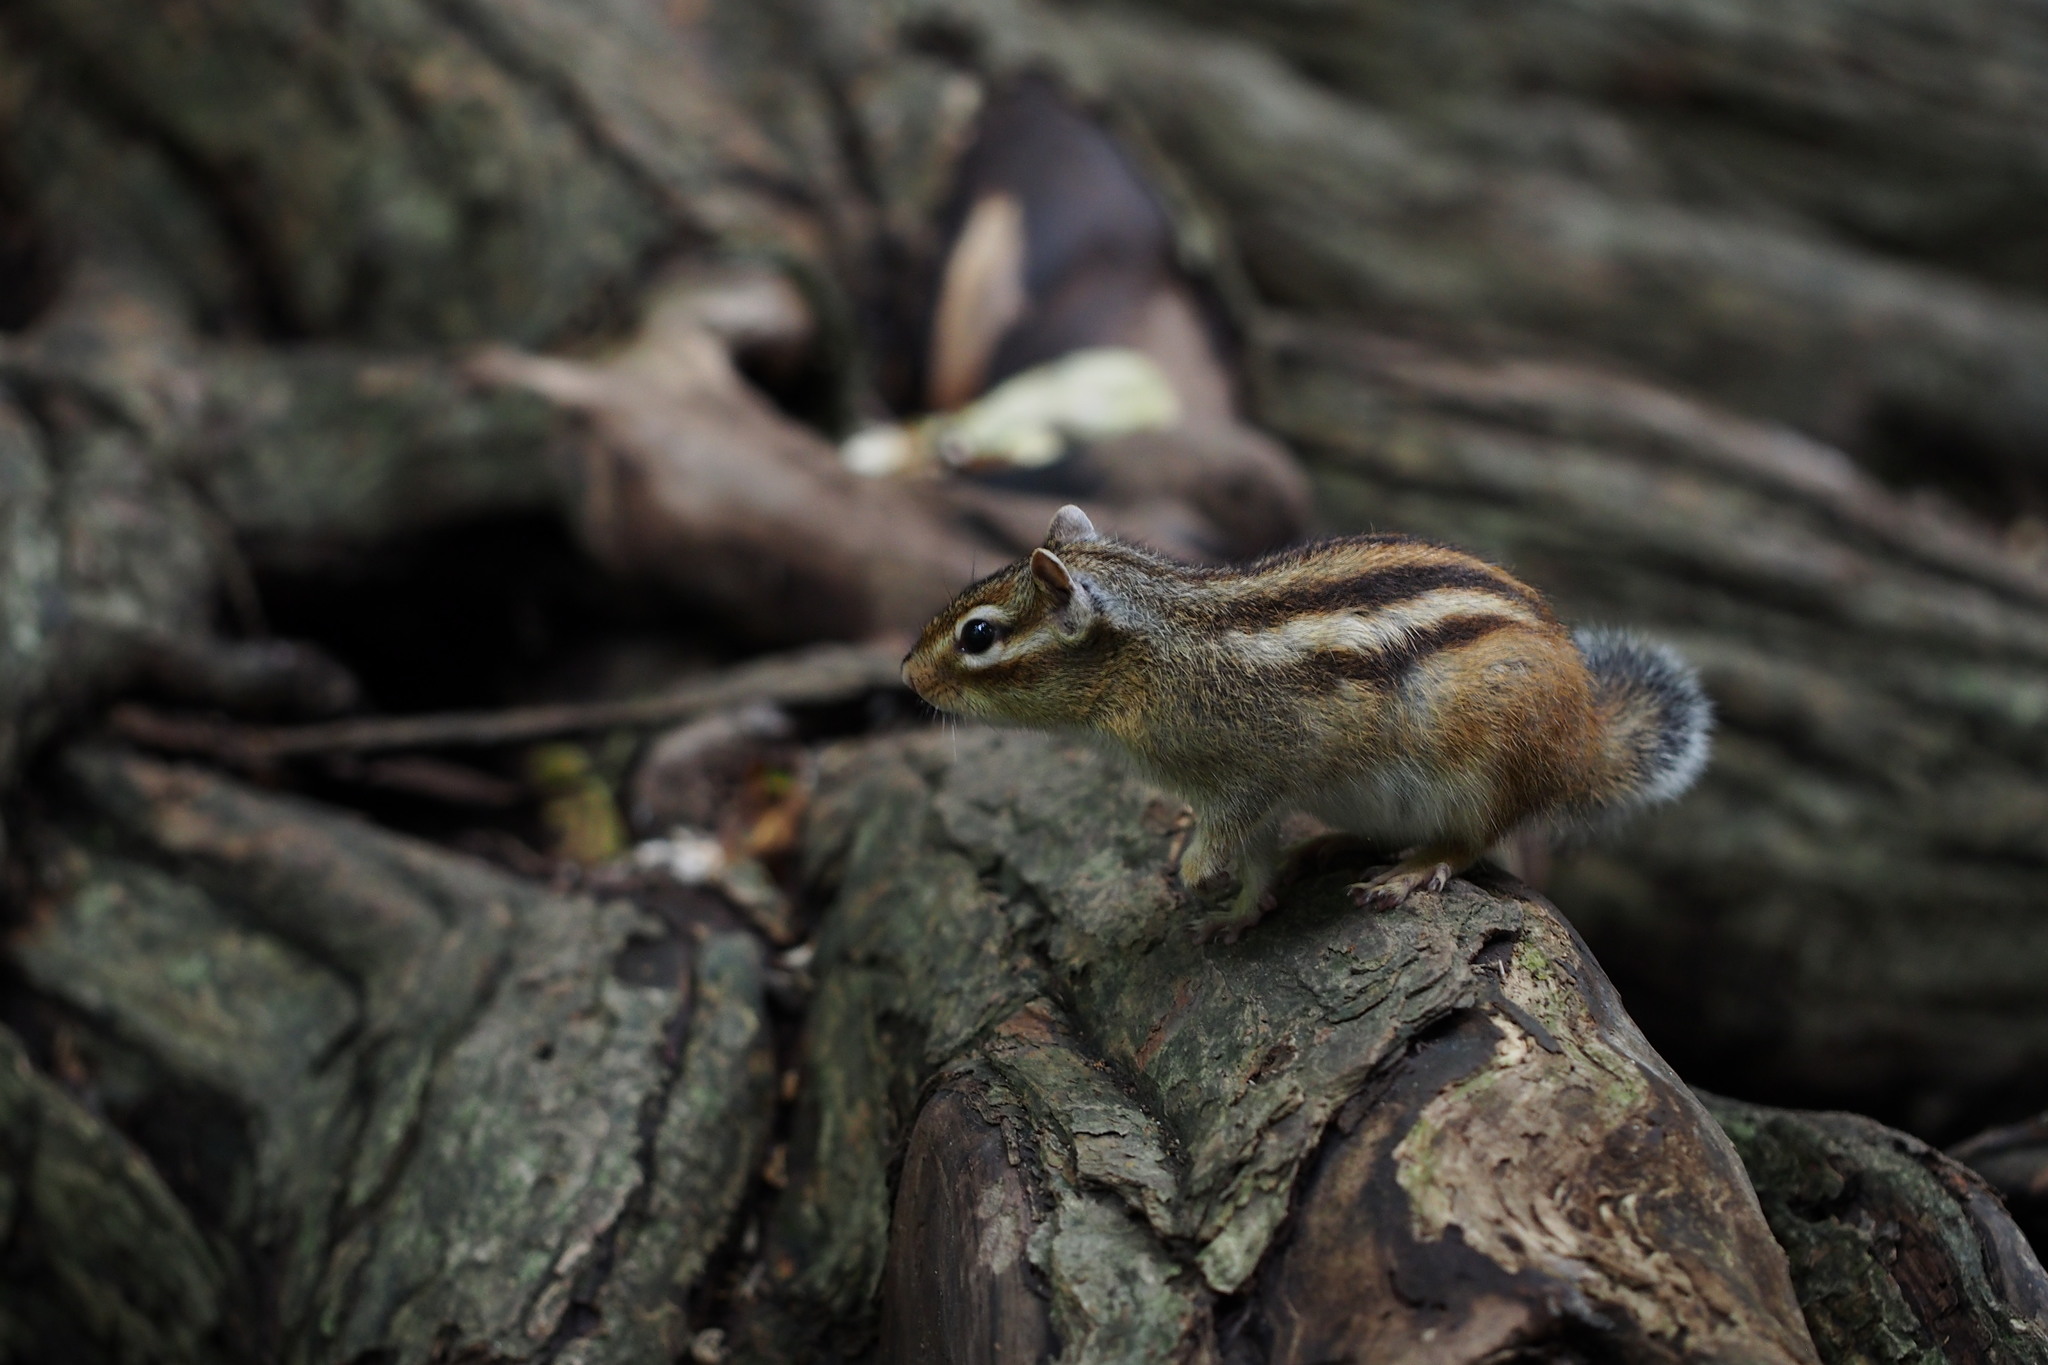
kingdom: Animalia
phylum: Chordata
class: Mammalia
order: Rodentia
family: Sciuridae
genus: Tamias
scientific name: Tamias sibiricus
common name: Siberian chipmunk
